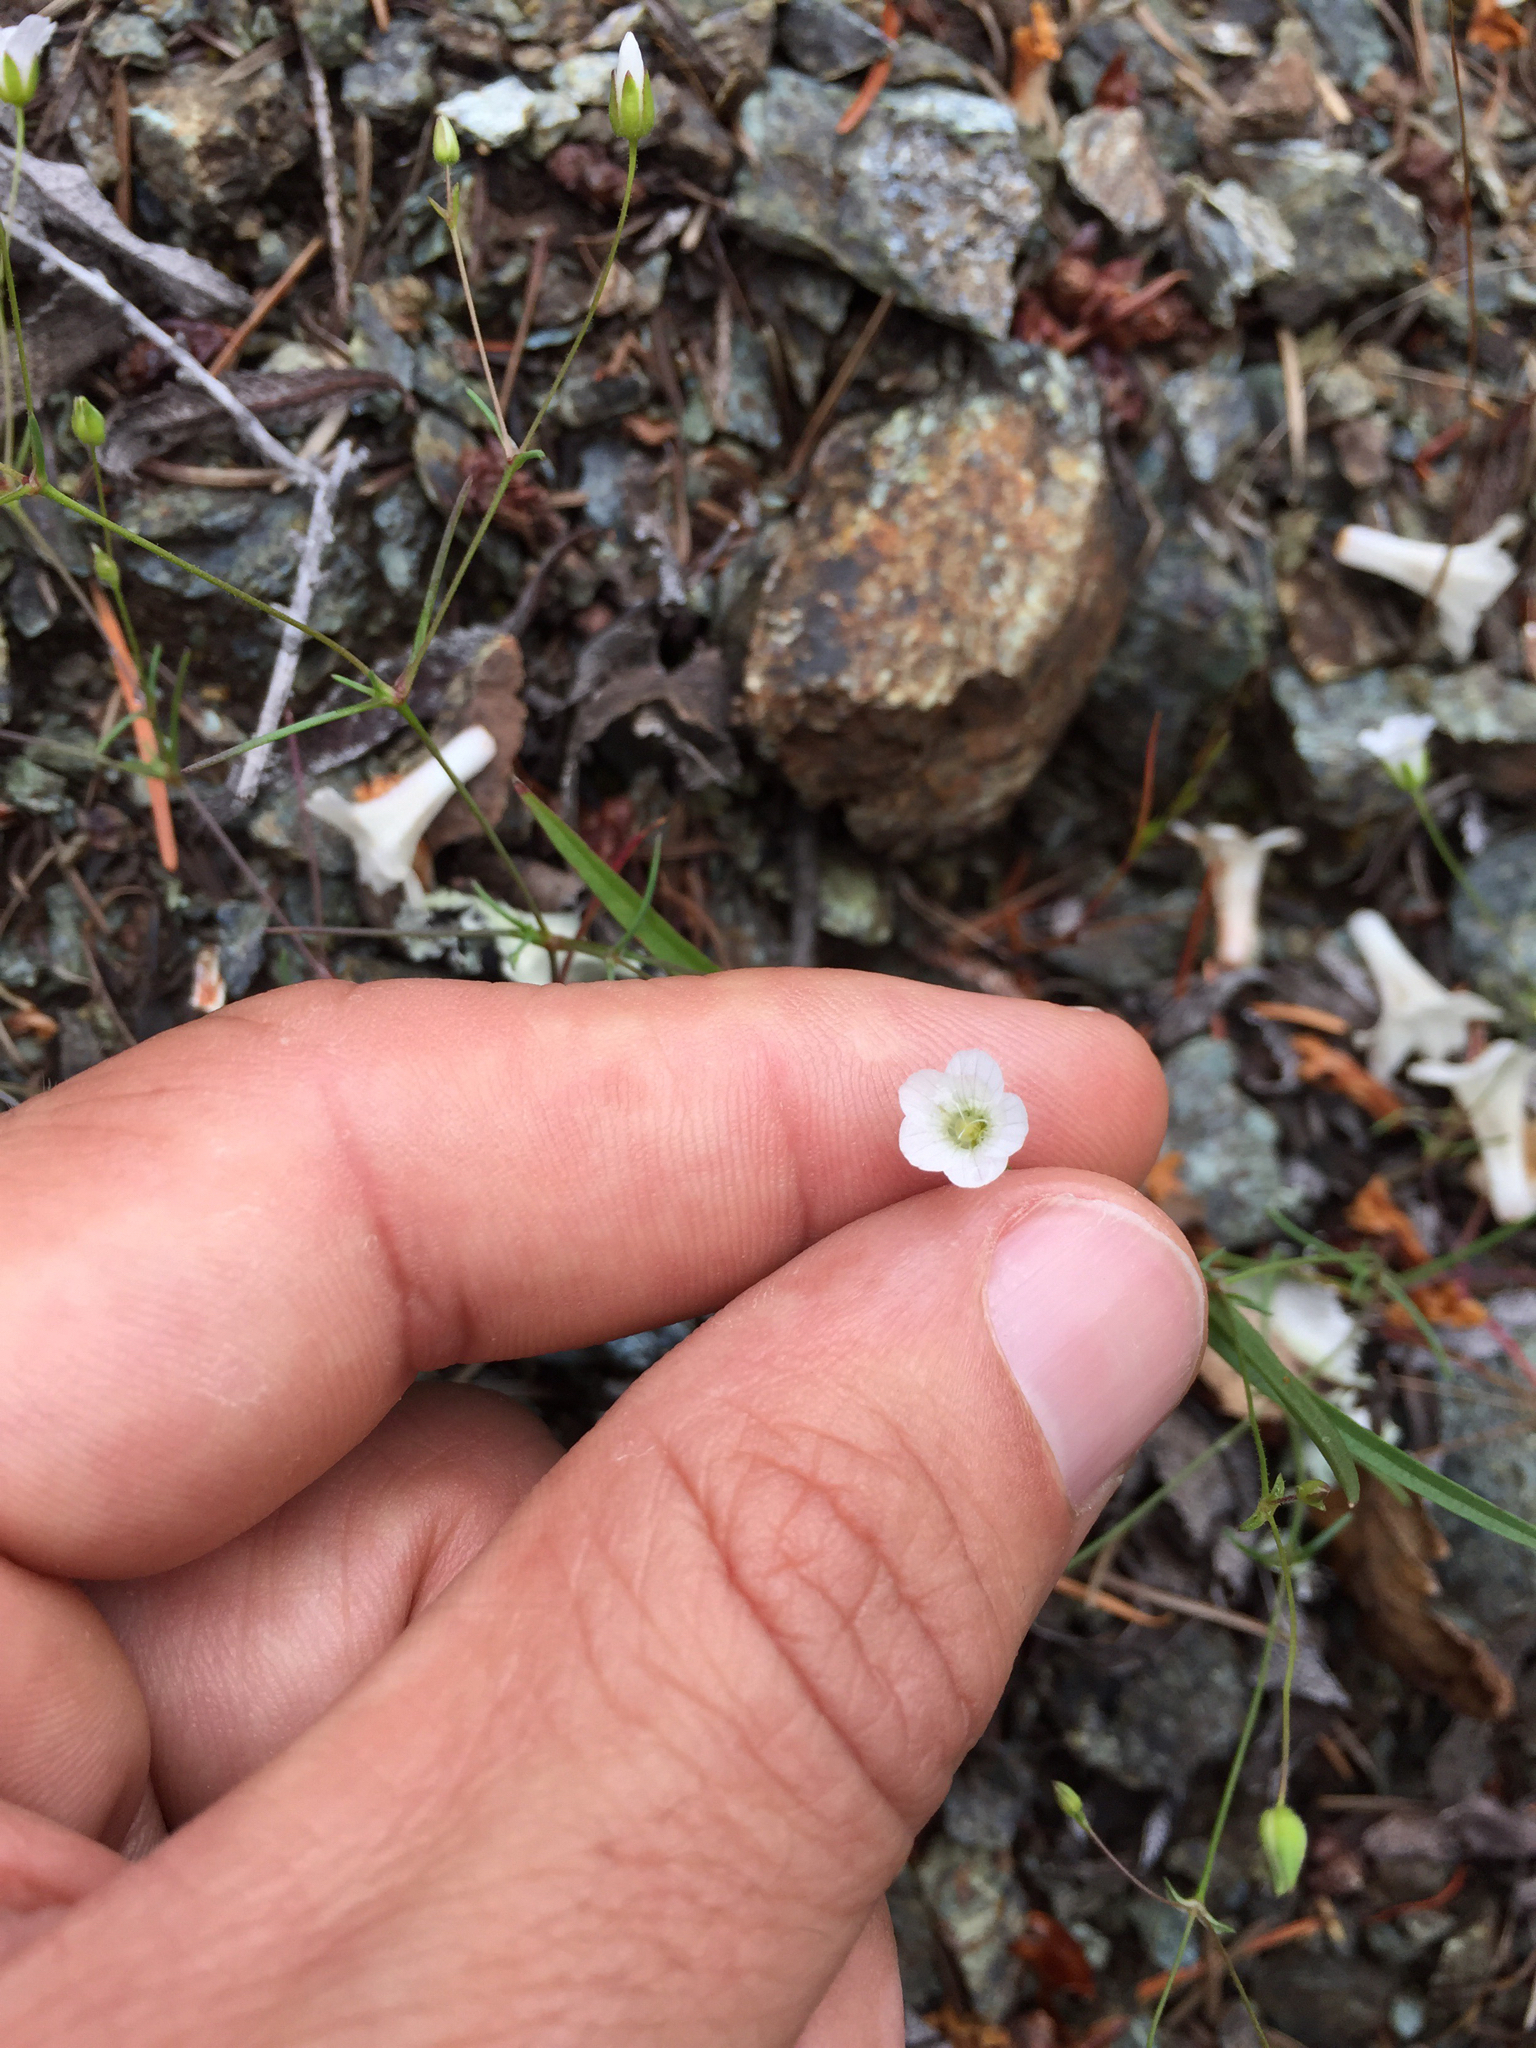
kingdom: Plantae
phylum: Tracheophyta
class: Magnoliopsida
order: Caryophyllales
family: Caryophyllaceae
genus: Sabulina
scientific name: Sabulina douglasii
